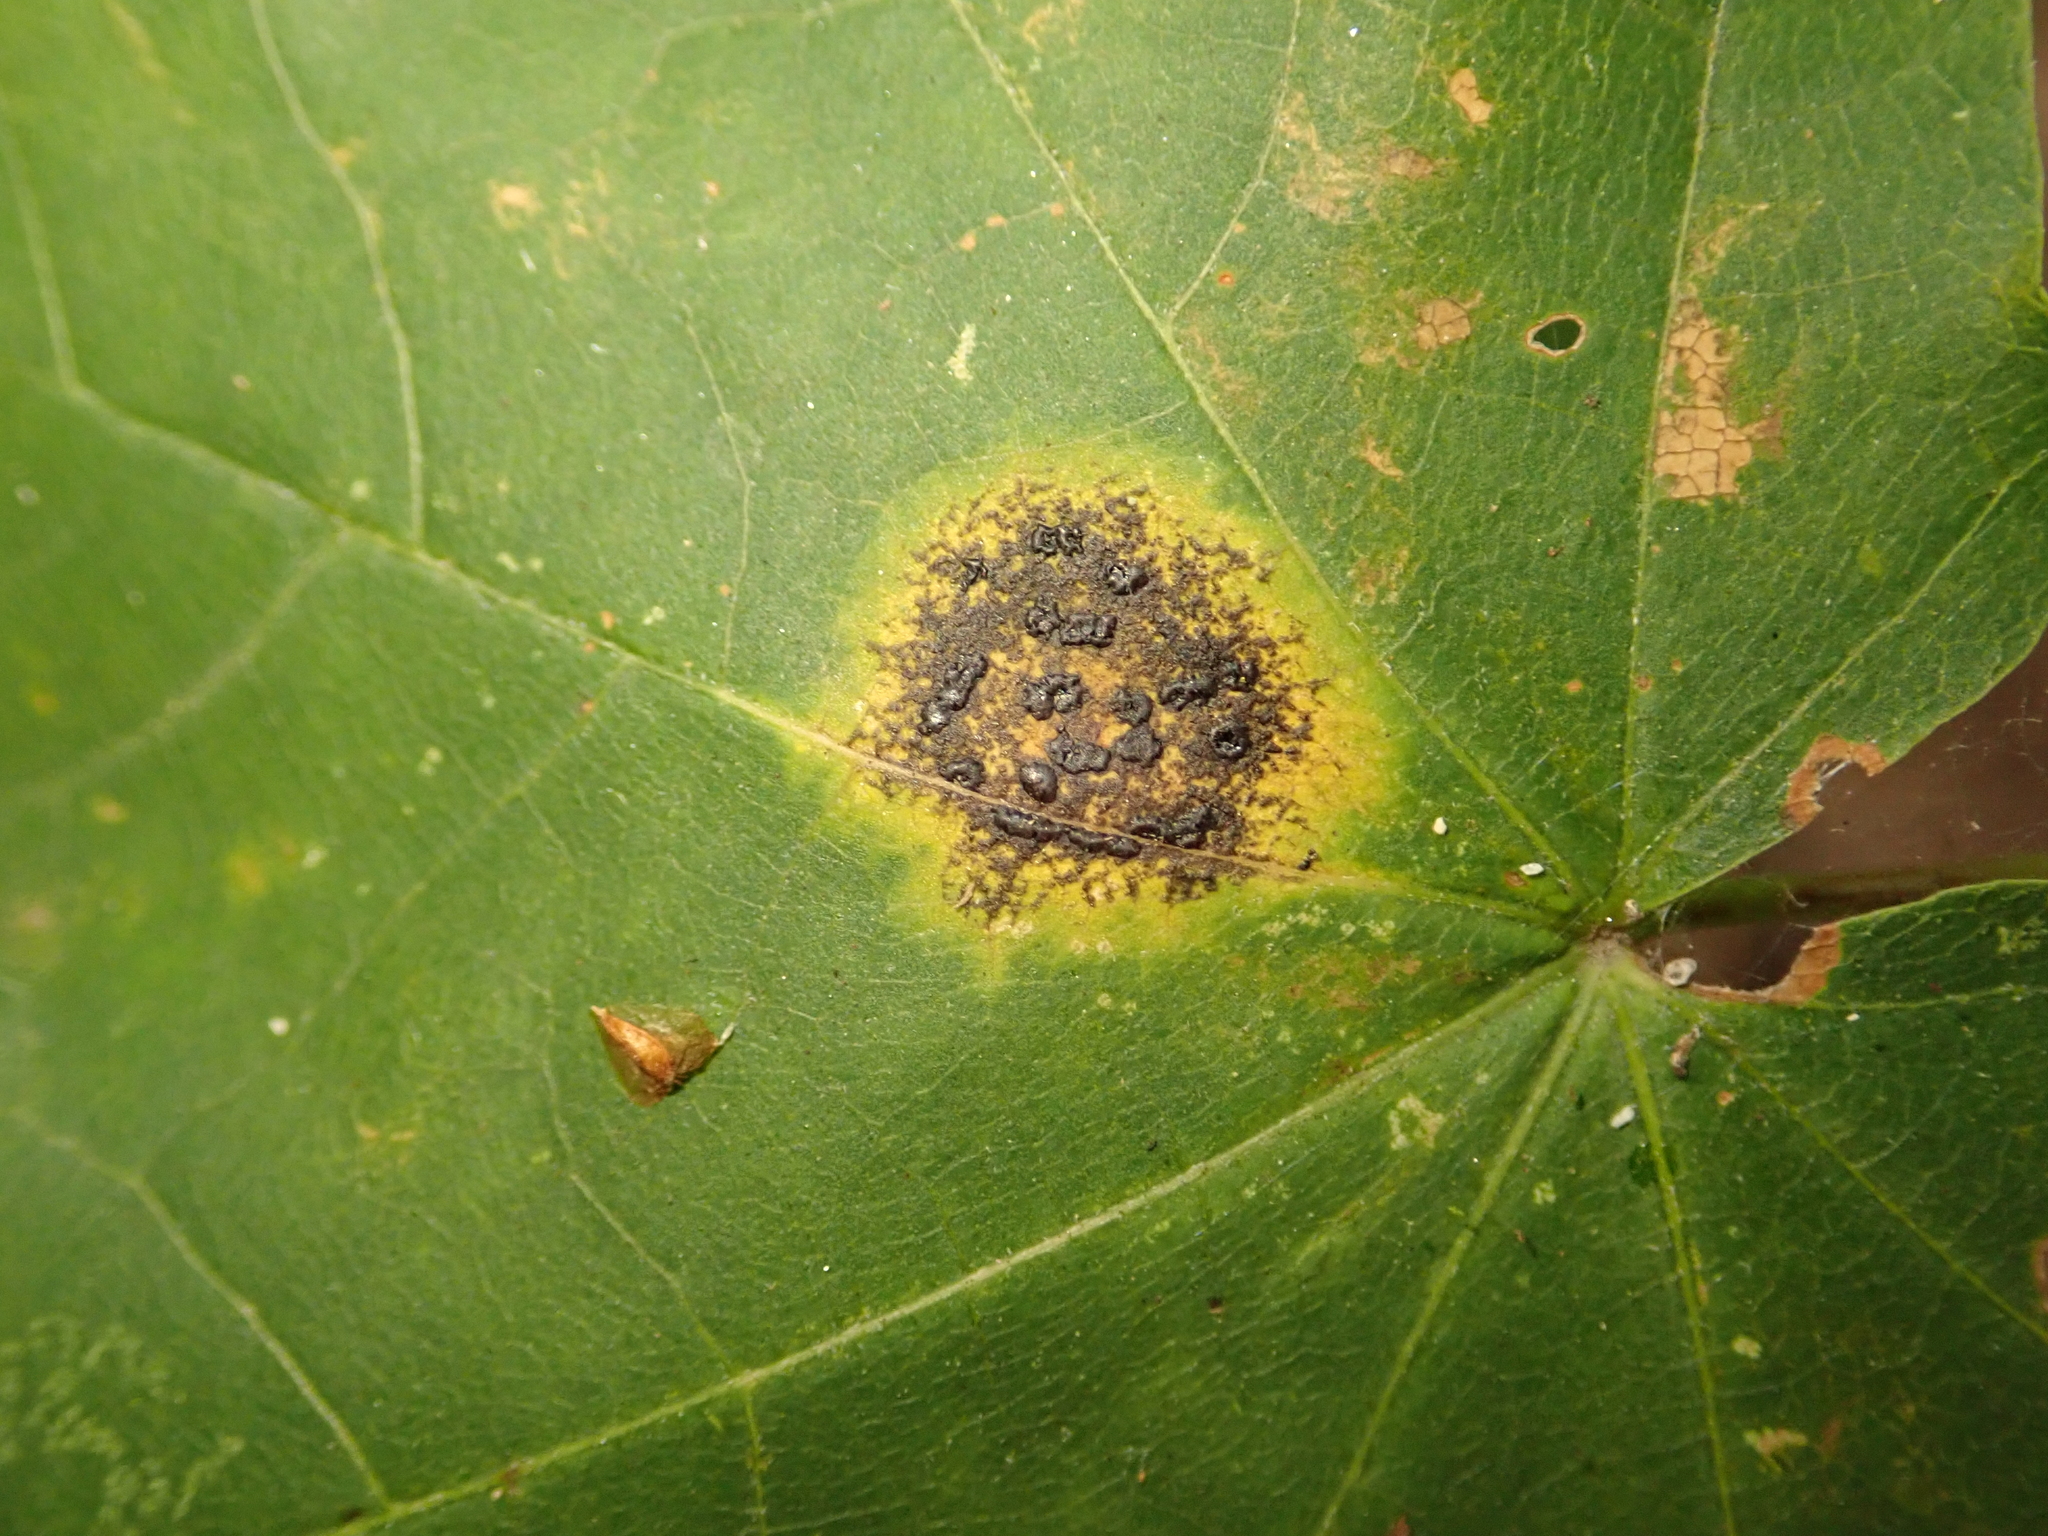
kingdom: Fungi
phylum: Ascomycota
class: Leotiomycetes
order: Rhytismatales
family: Rhytismataceae
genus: Rhytisma
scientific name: Rhytisma acerinum
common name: European tar spot
